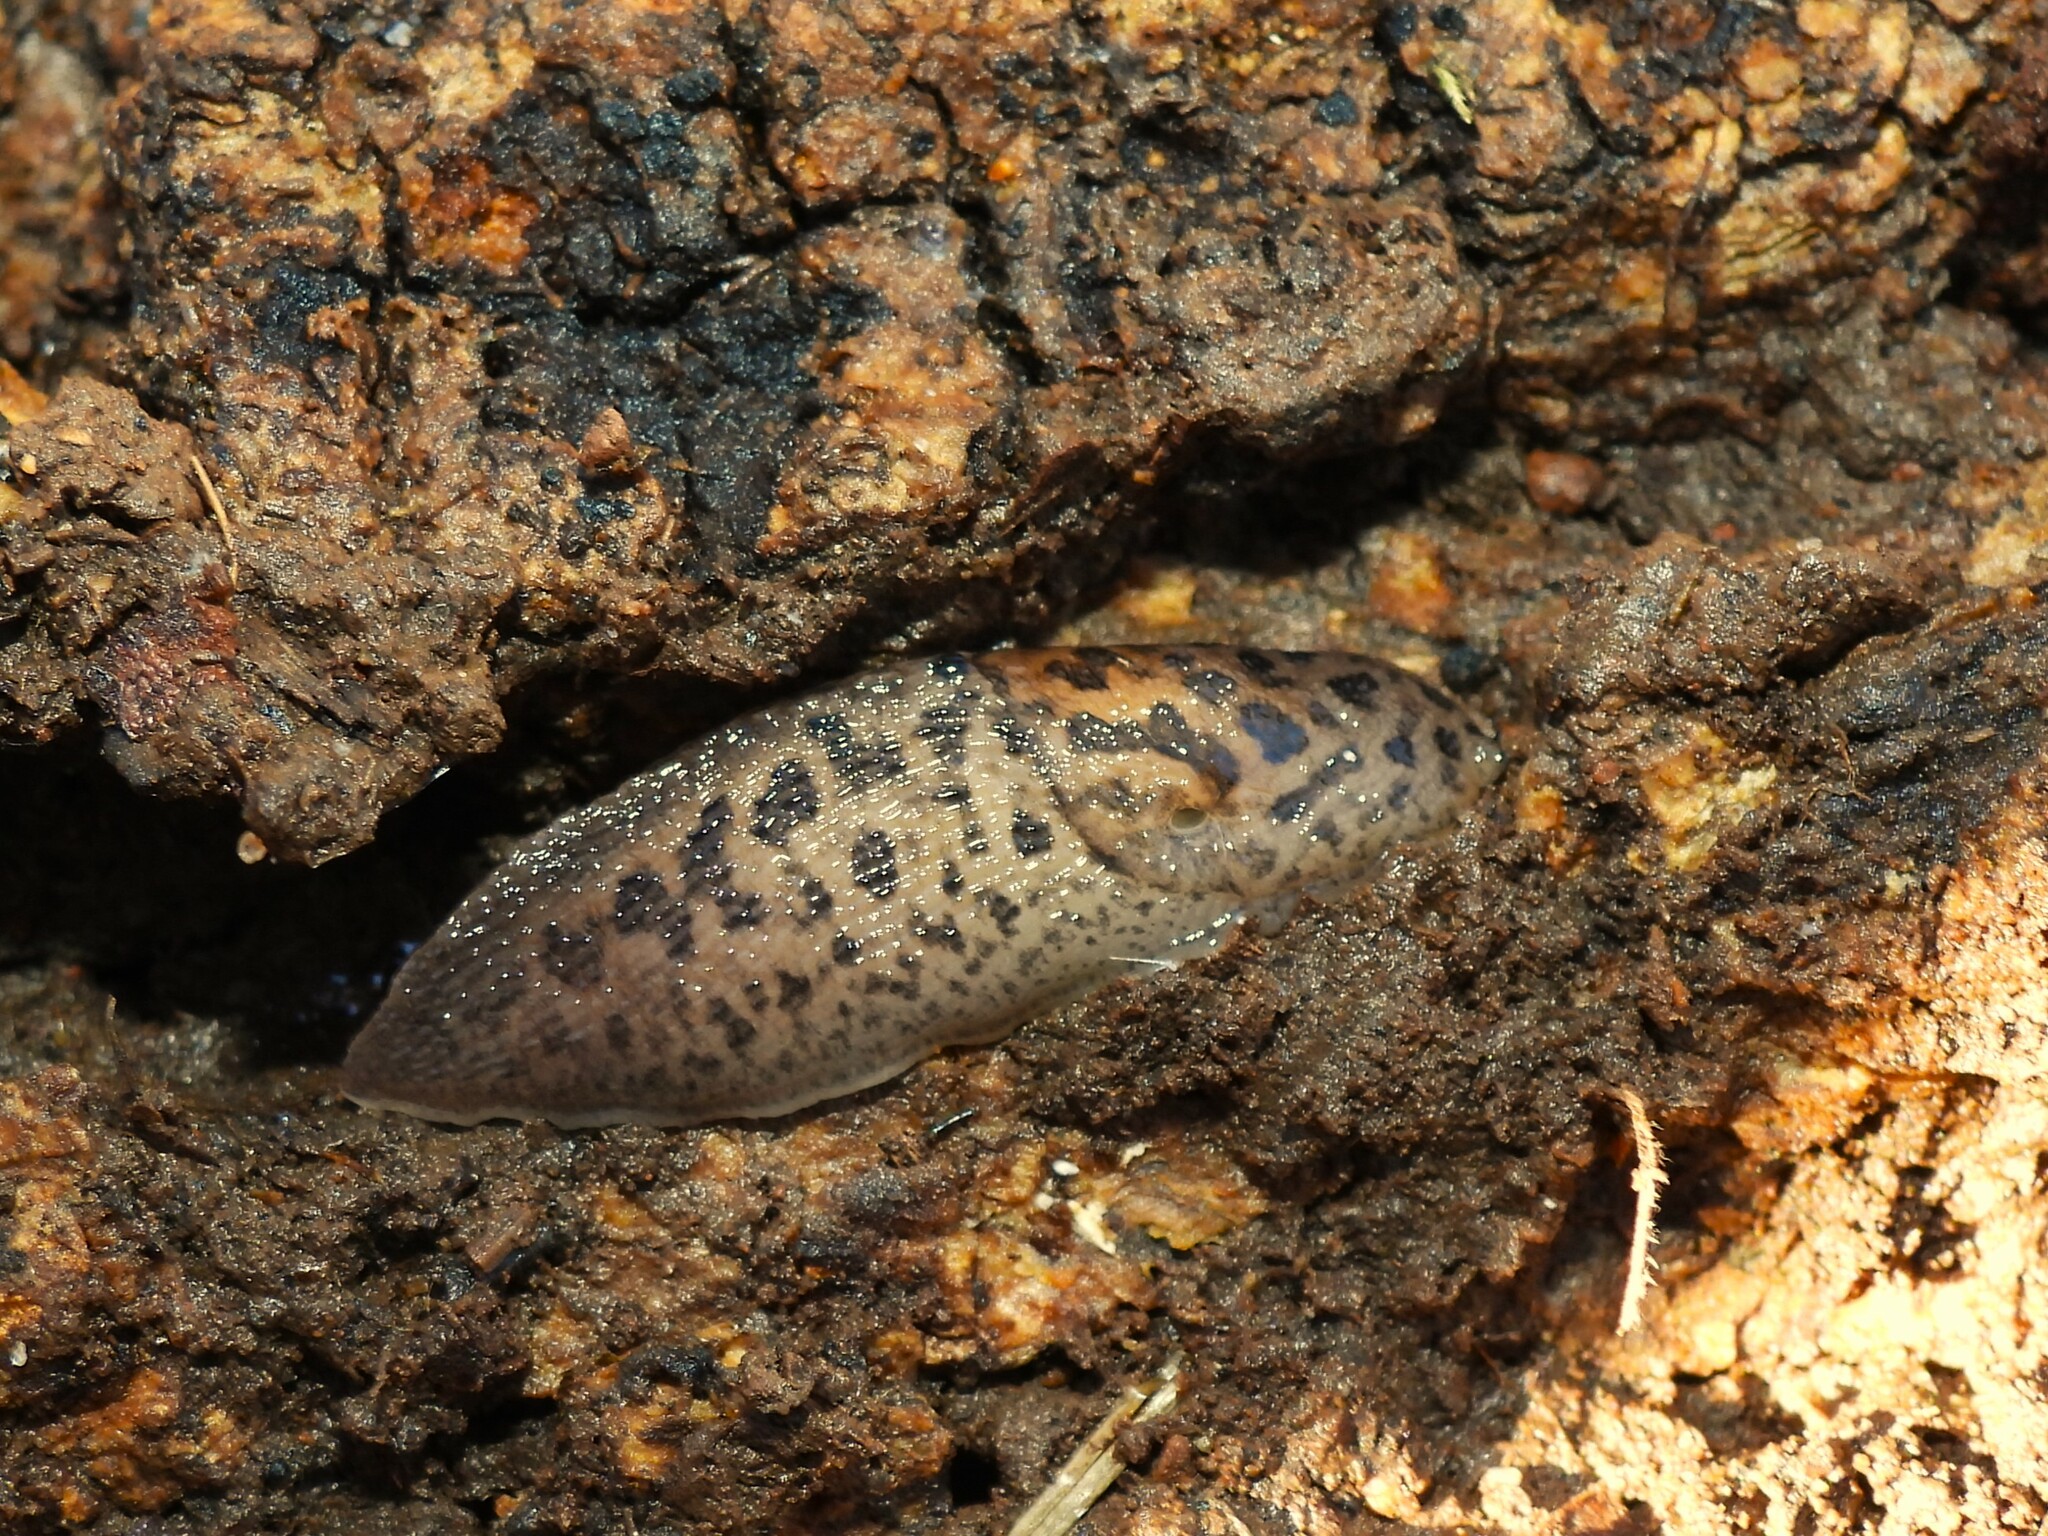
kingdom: Animalia
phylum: Mollusca
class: Gastropoda
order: Stylommatophora
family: Limacidae
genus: Limax
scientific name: Limax maximus
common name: Great grey slug
